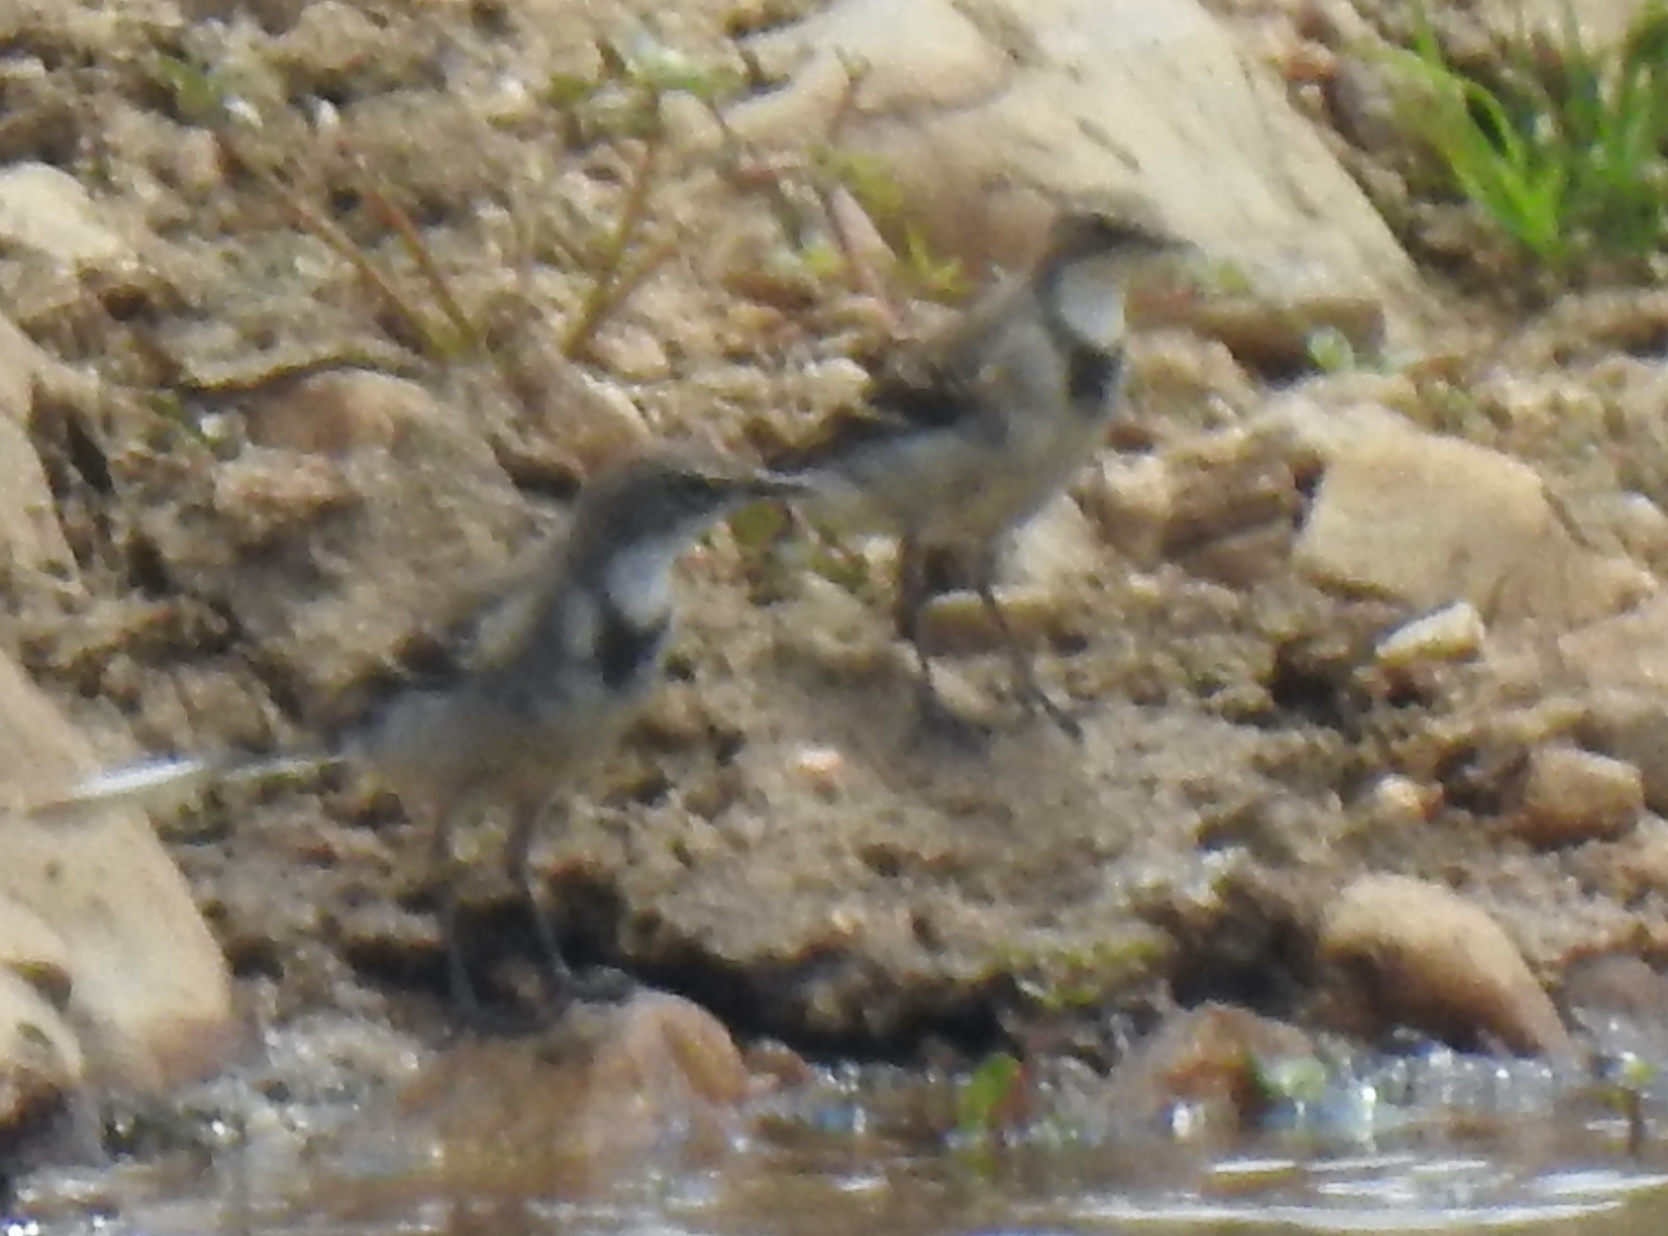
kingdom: Animalia
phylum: Chordata
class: Aves
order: Passeriformes
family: Motacillidae
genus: Motacilla
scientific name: Motacilla capensis
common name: Cape wagtail
